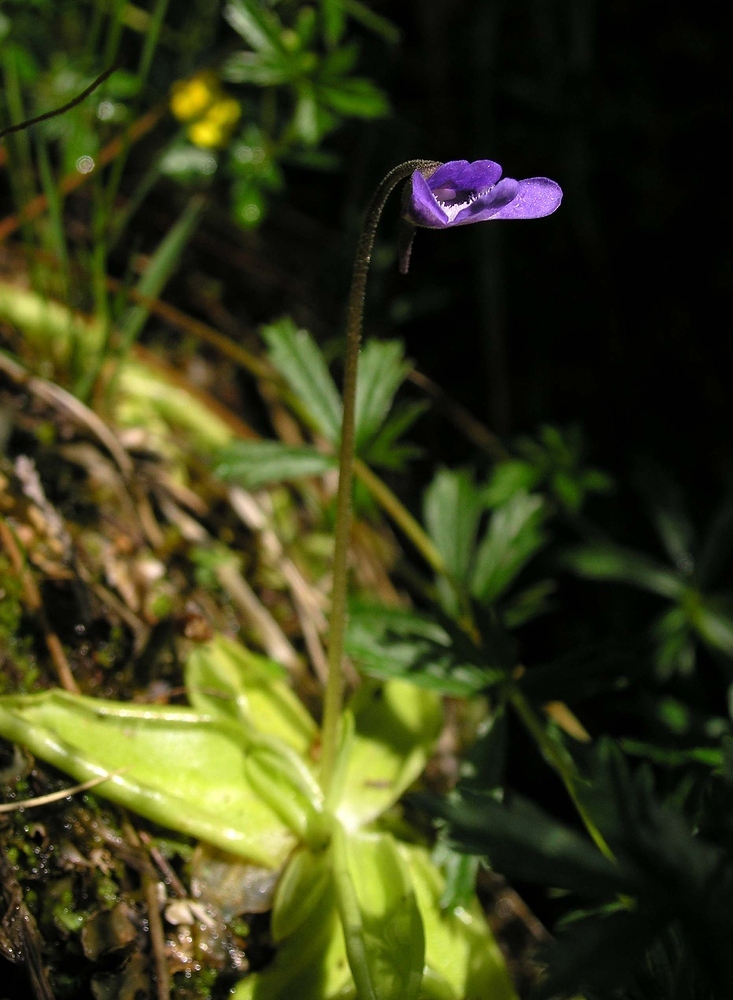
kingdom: Plantae
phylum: Tracheophyta
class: Magnoliopsida
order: Lamiales
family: Lentibulariaceae
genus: Pinguicula
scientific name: Pinguicula vulgaris
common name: Common butterwort
